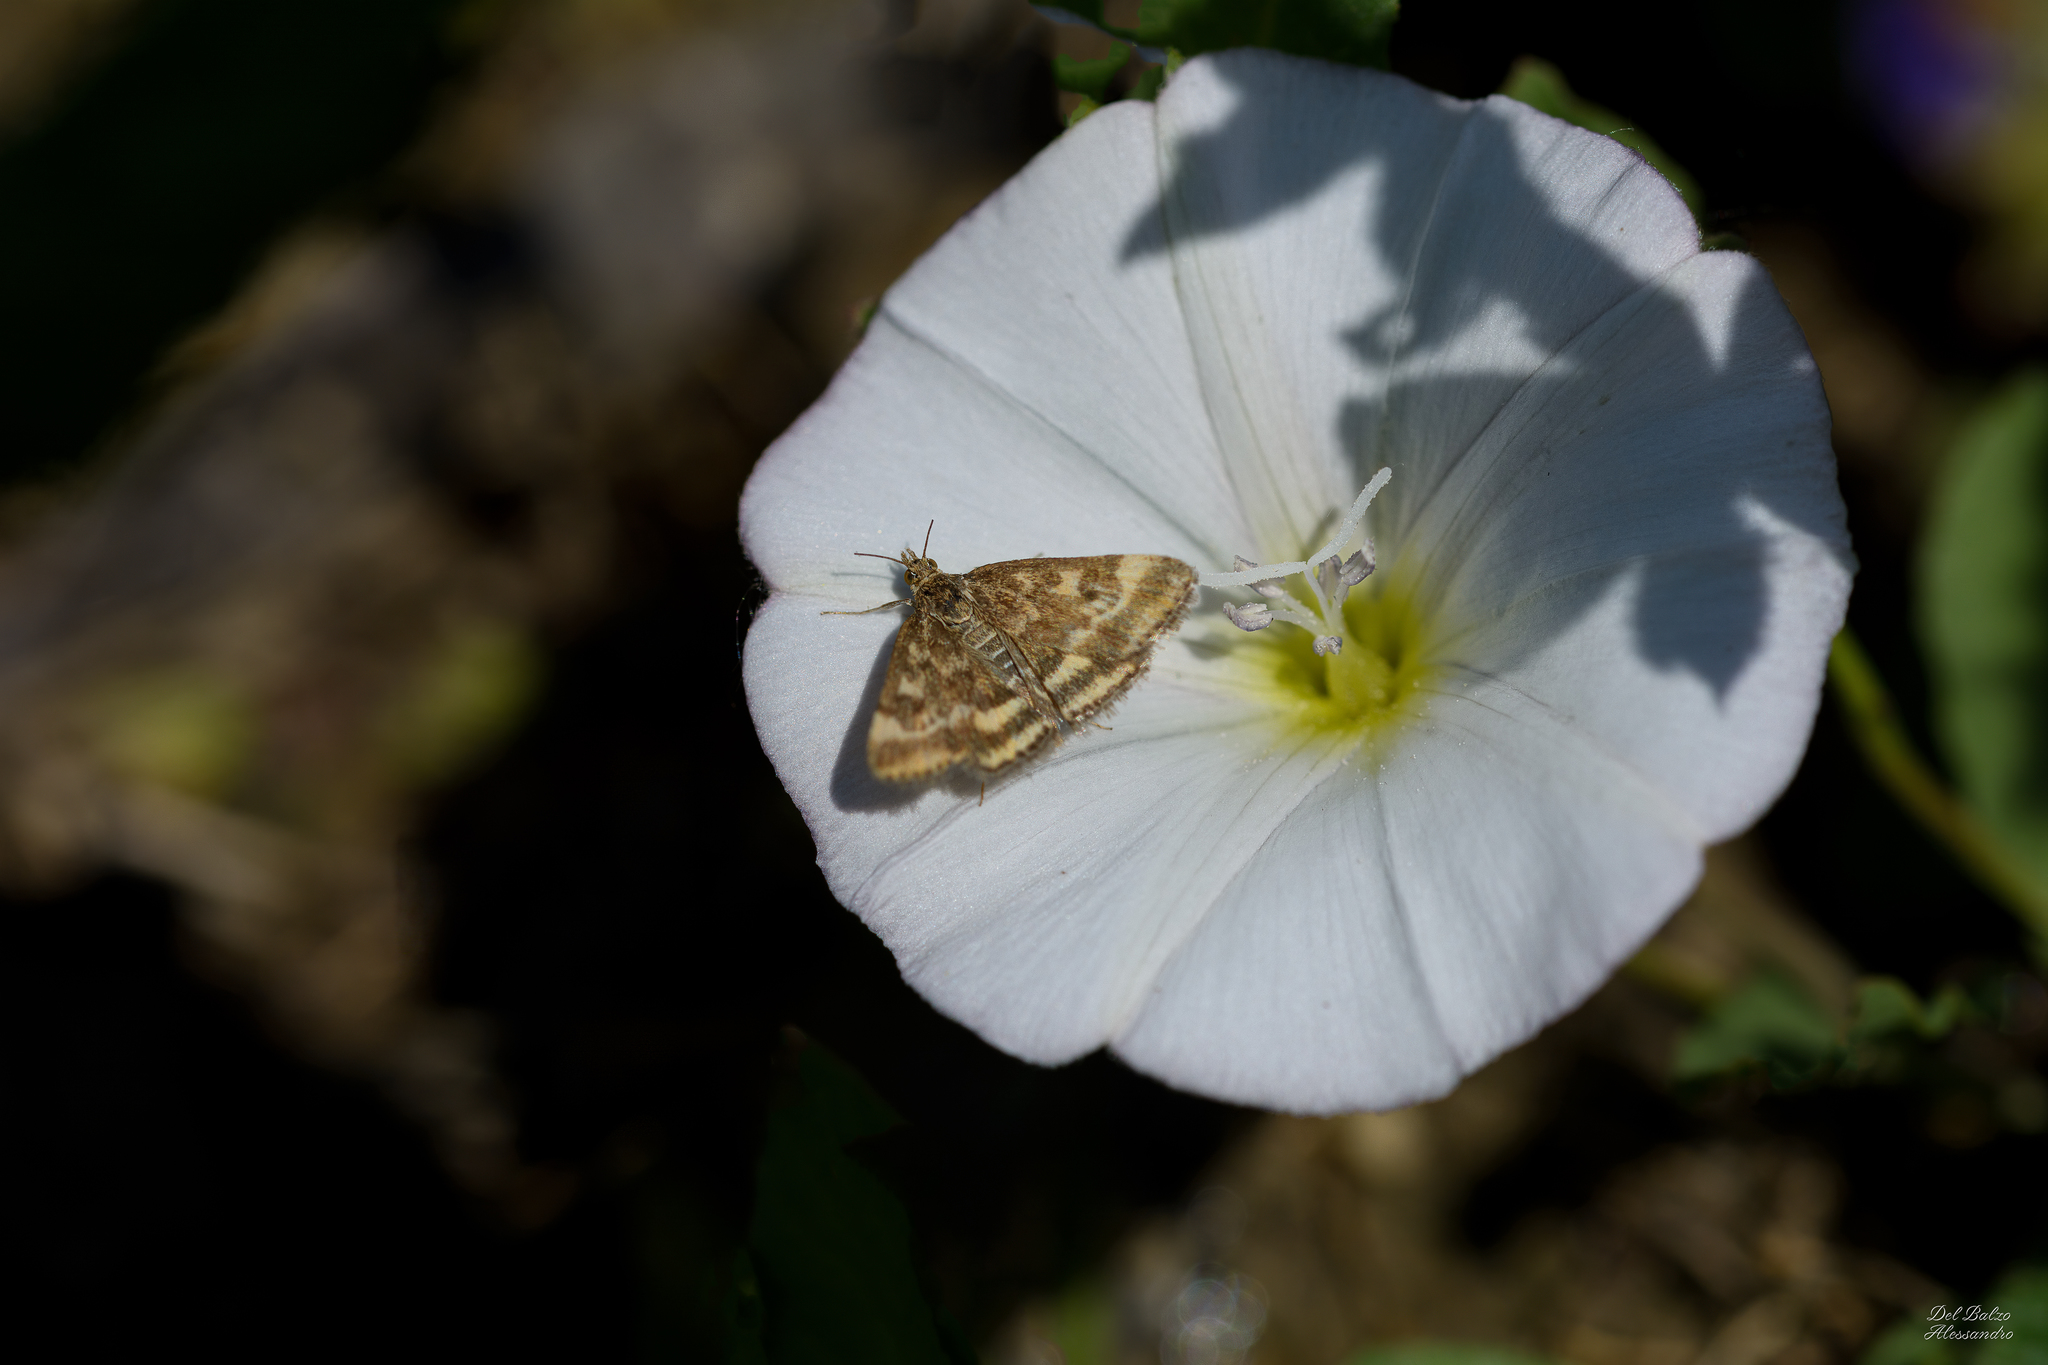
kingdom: Animalia
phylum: Arthropoda
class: Insecta
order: Lepidoptera
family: Crambidae
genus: Pyrausta
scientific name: Pyrausta despicata
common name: Straw-barred pearl
